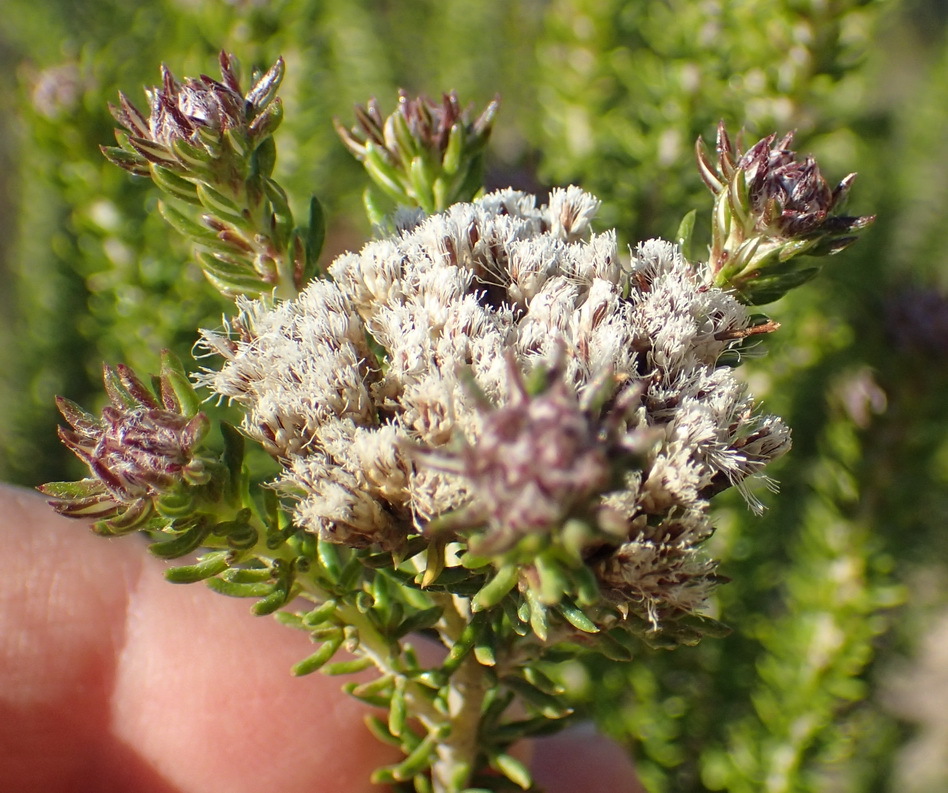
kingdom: Plantae
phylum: Tracheophyta
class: Magnoliopsida
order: Asterales
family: Asteraceae
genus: Metalasia
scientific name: Metalasia muricata
